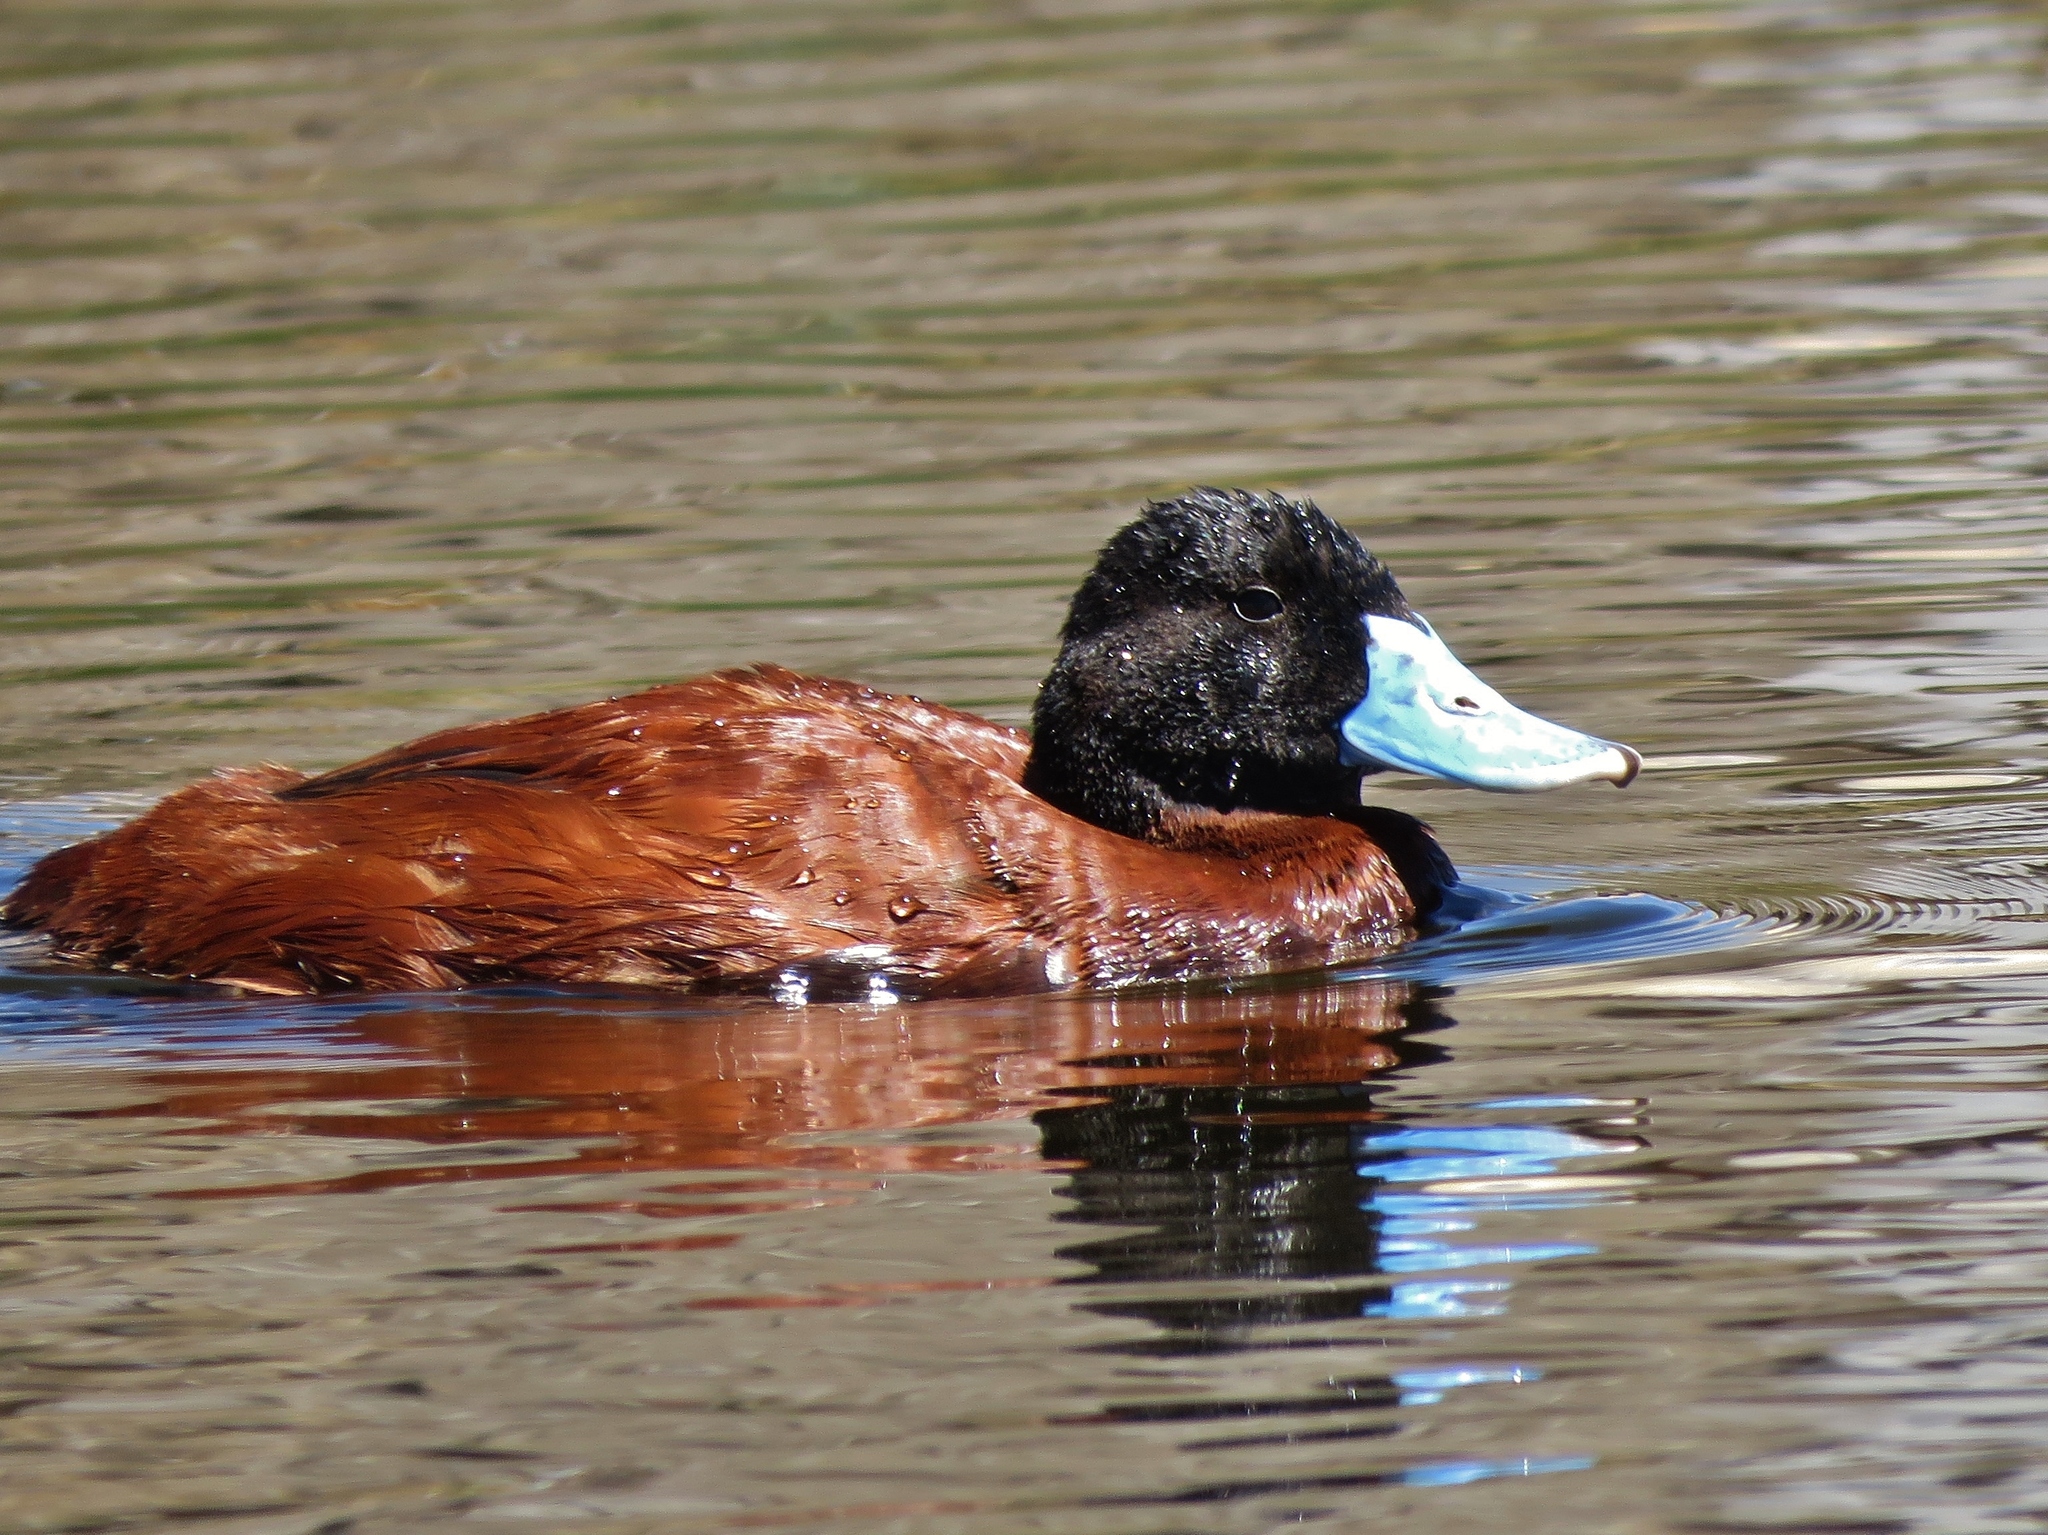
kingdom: Animalia
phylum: Chordata
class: Aves
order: Anseriformes
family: Anatidae
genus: Oxyura
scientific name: Oxyura ferruginea
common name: Andean duck
